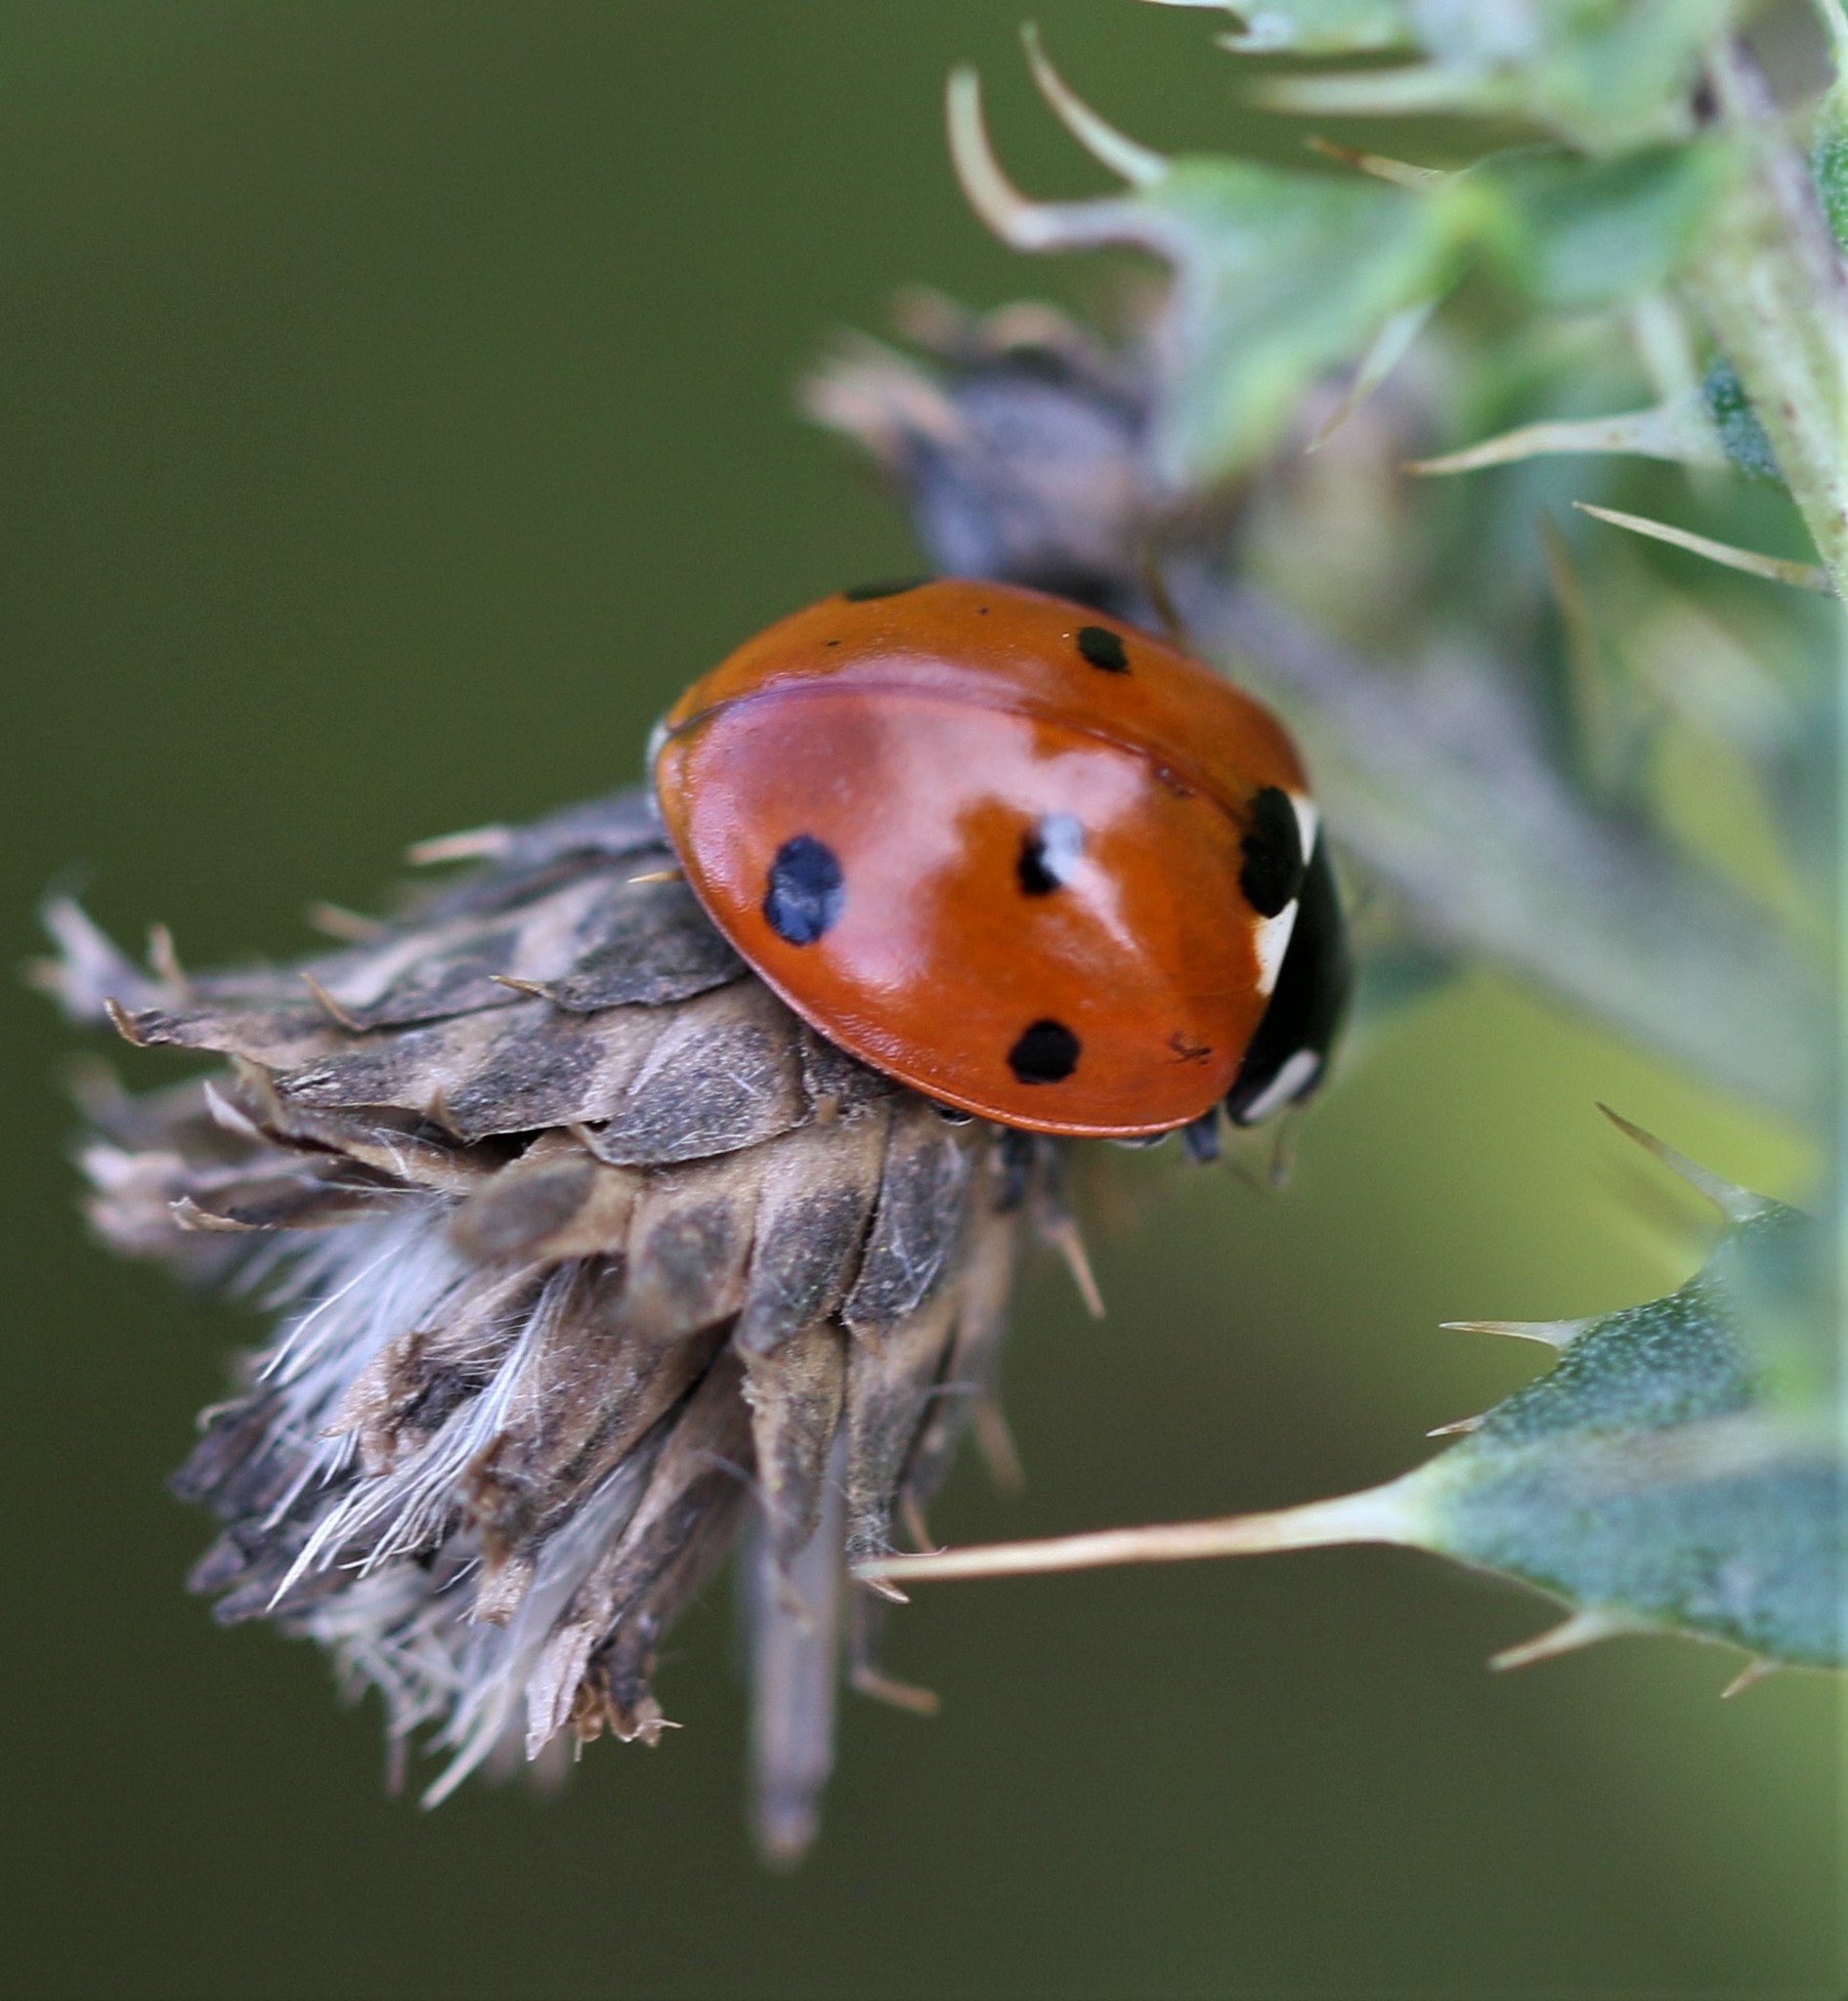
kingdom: Animalia
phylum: Arthropoda
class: Insecta
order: Coleoptera
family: Coccinellidae
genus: Coccinella
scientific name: Coccinella septempunctata
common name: Sevenspotted lady beetle
